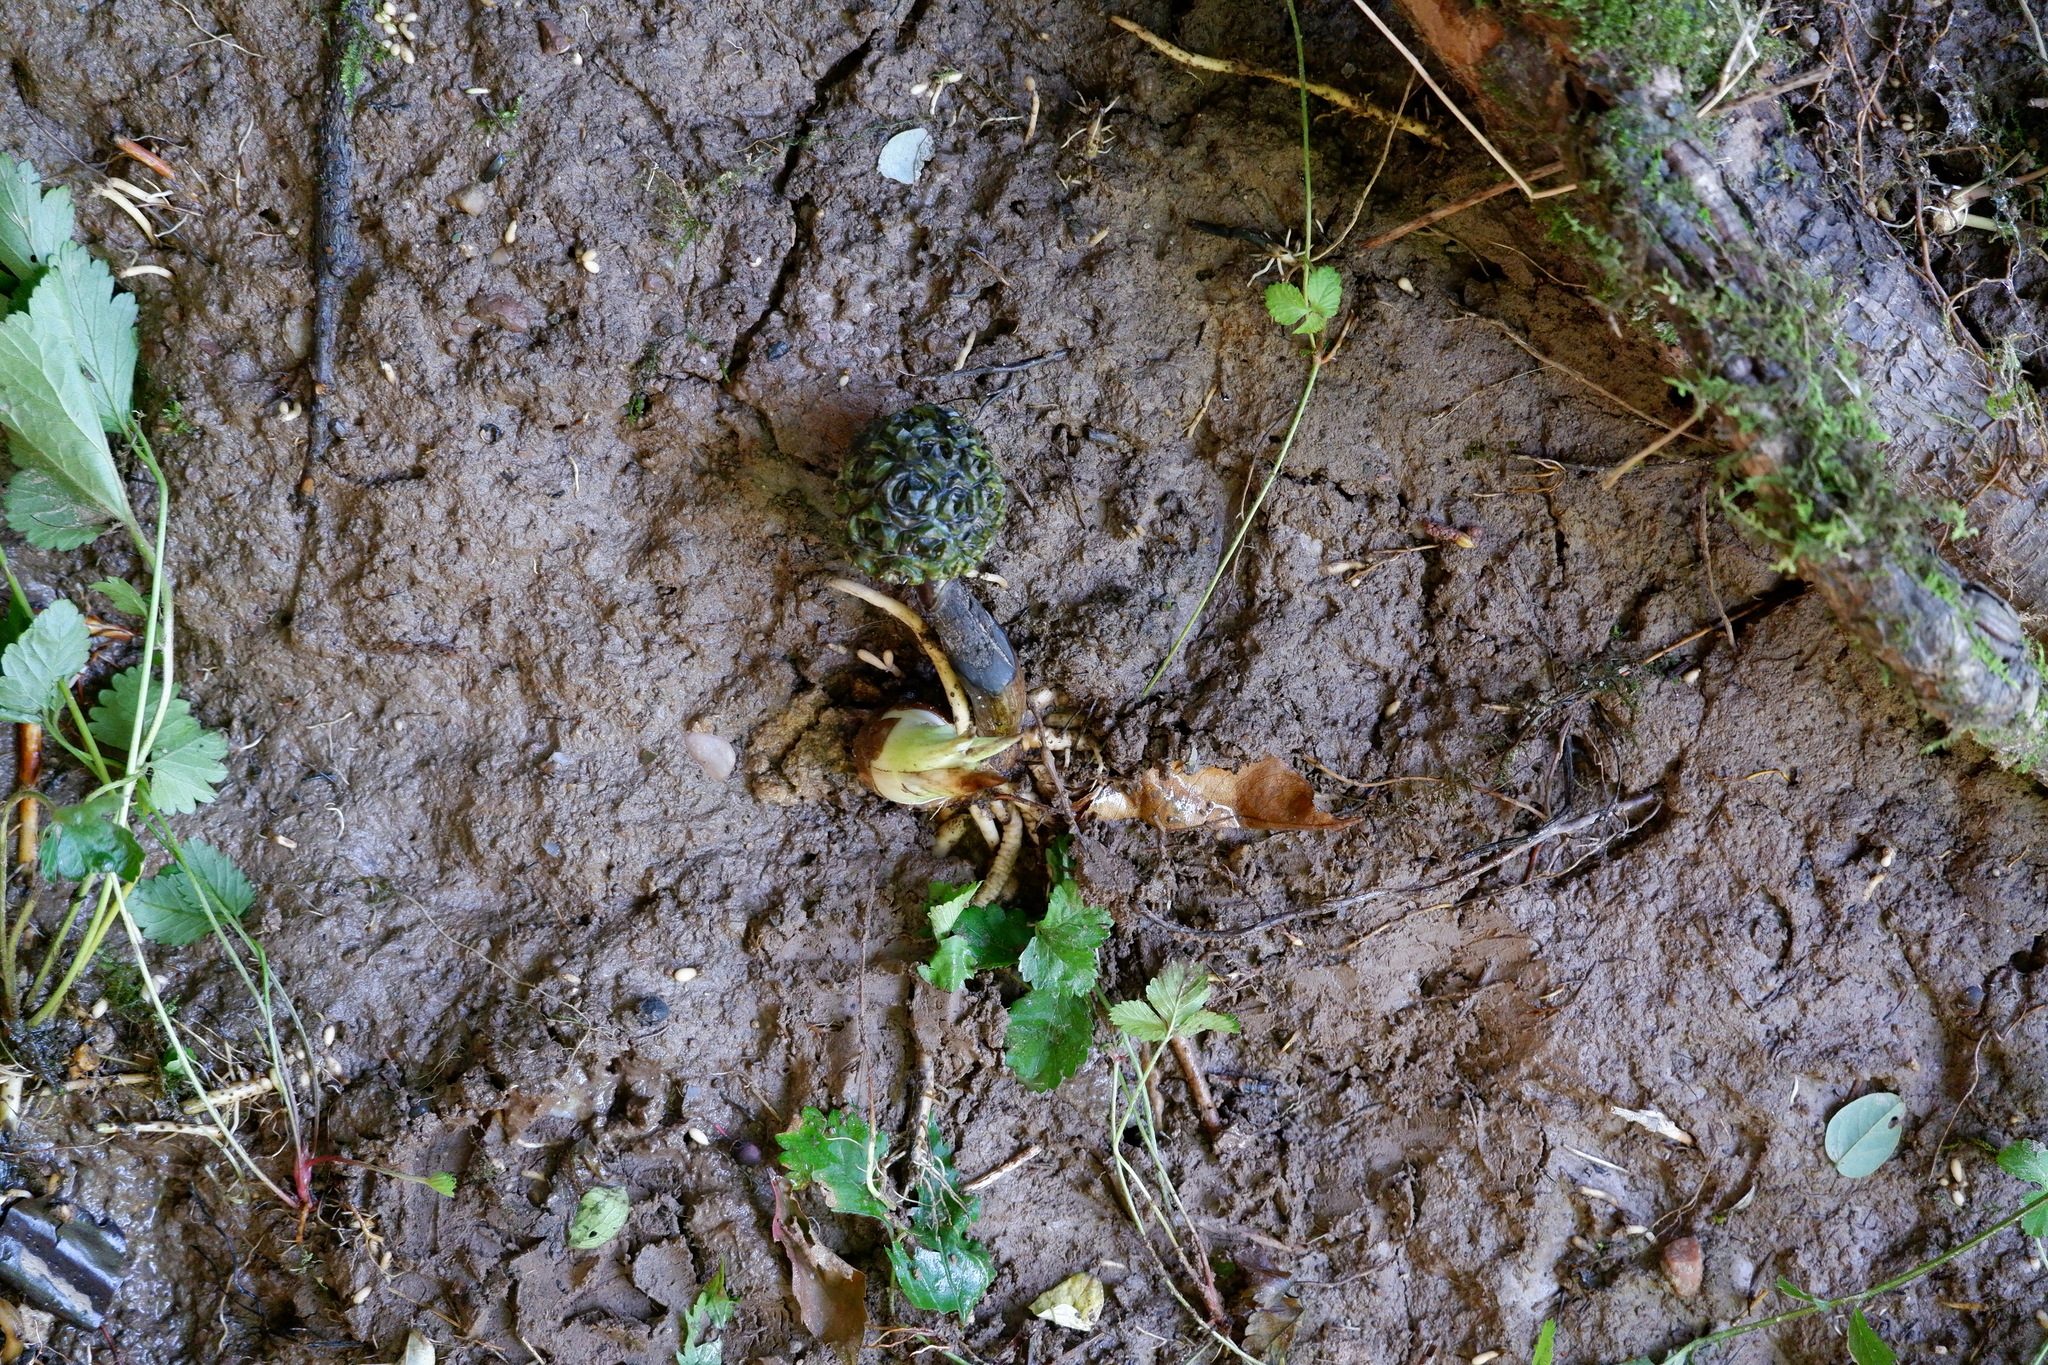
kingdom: Plantae
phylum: Tracheophyta
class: Liliopsida
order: Alismatales
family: Araceae
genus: Symplocarpus
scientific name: Symplocarpus foetidus
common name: Eastern skunk cabbage
